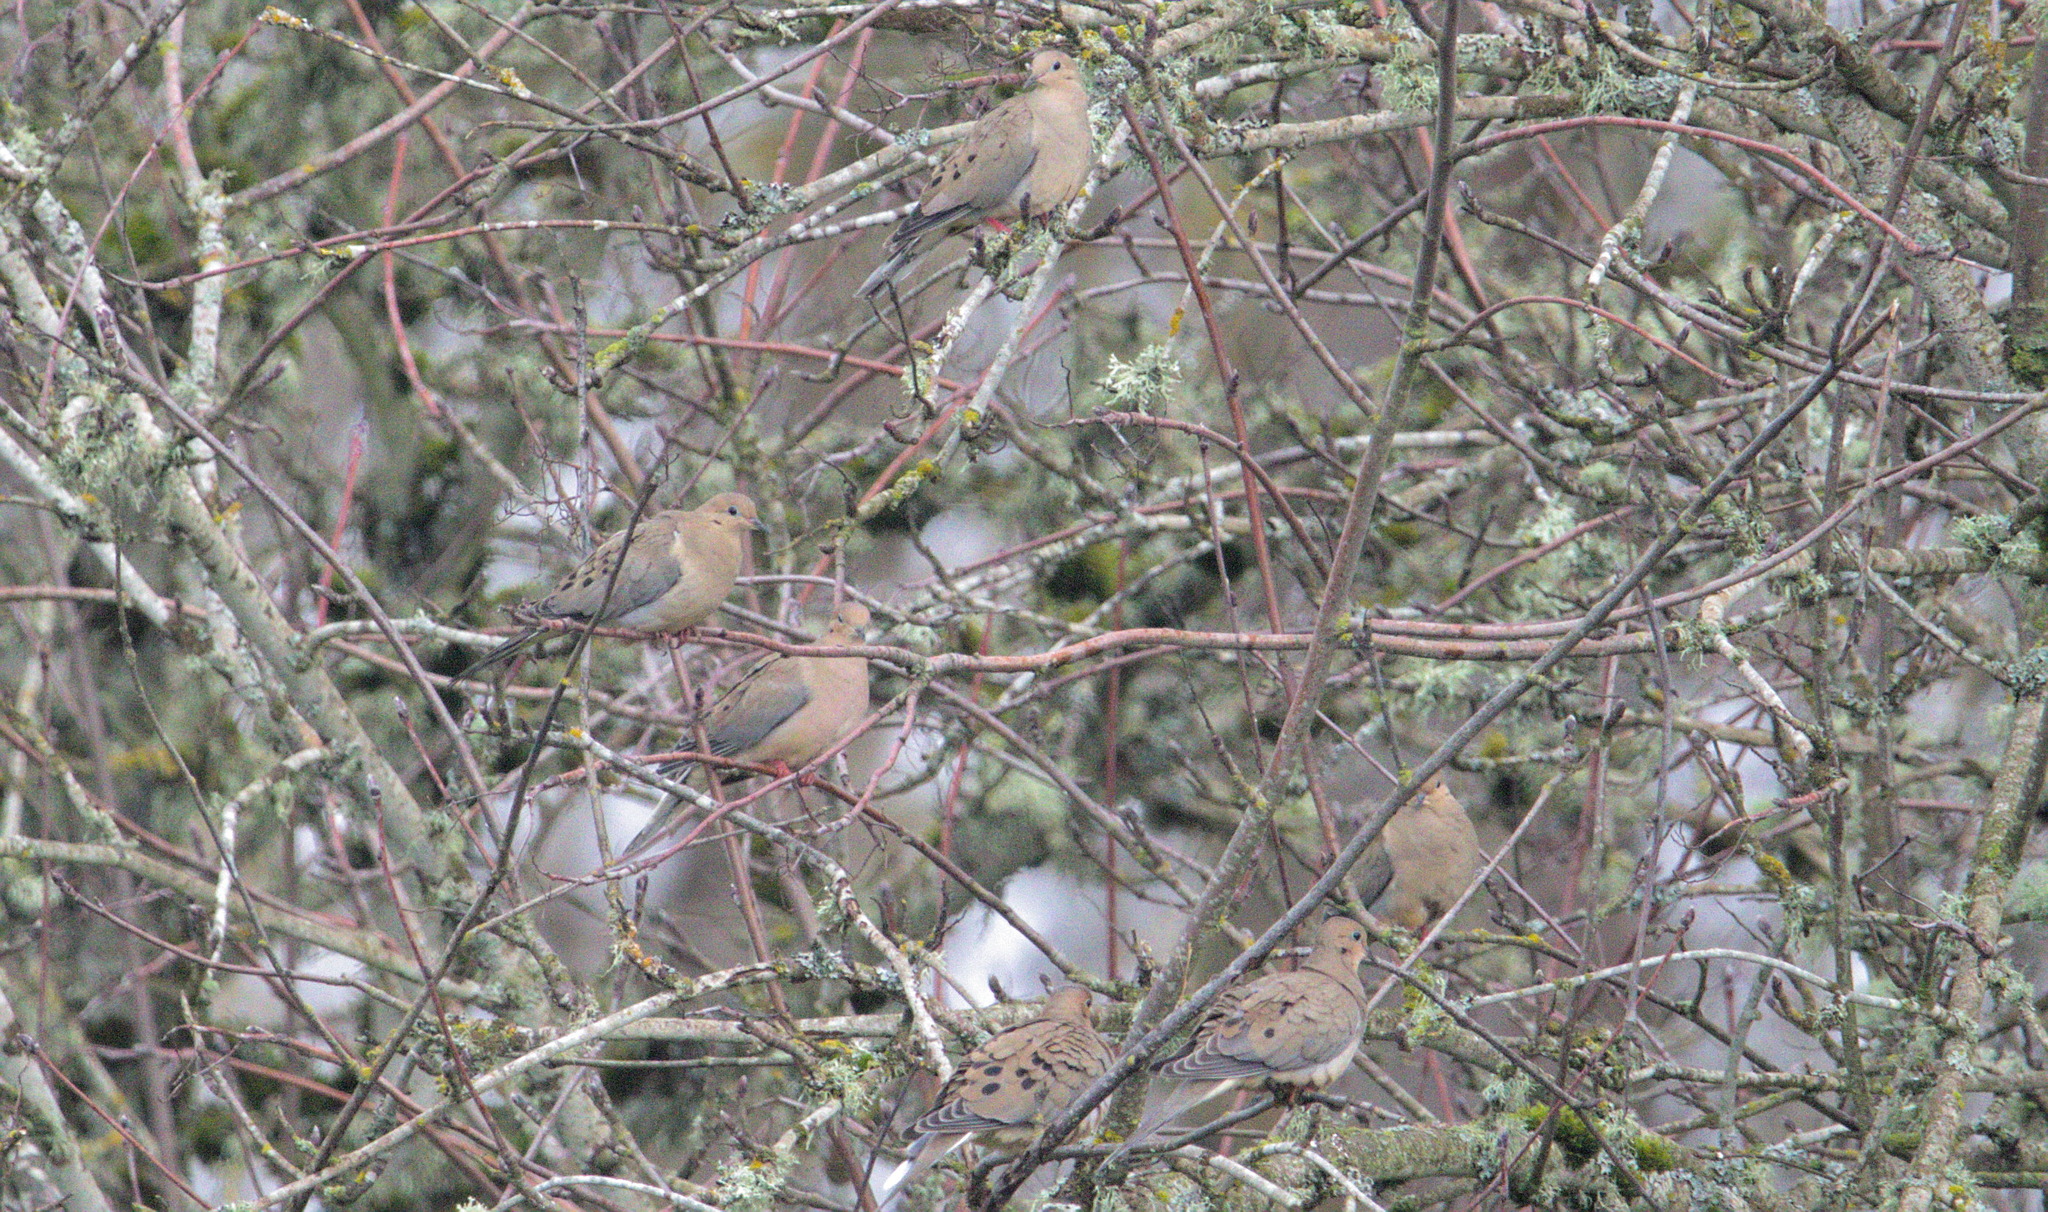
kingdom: Animalia
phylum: Chordata
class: Aves
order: Columbiformes
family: Columbidae
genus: Zenaida
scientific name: Zenaida macroura
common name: Mourning dove
